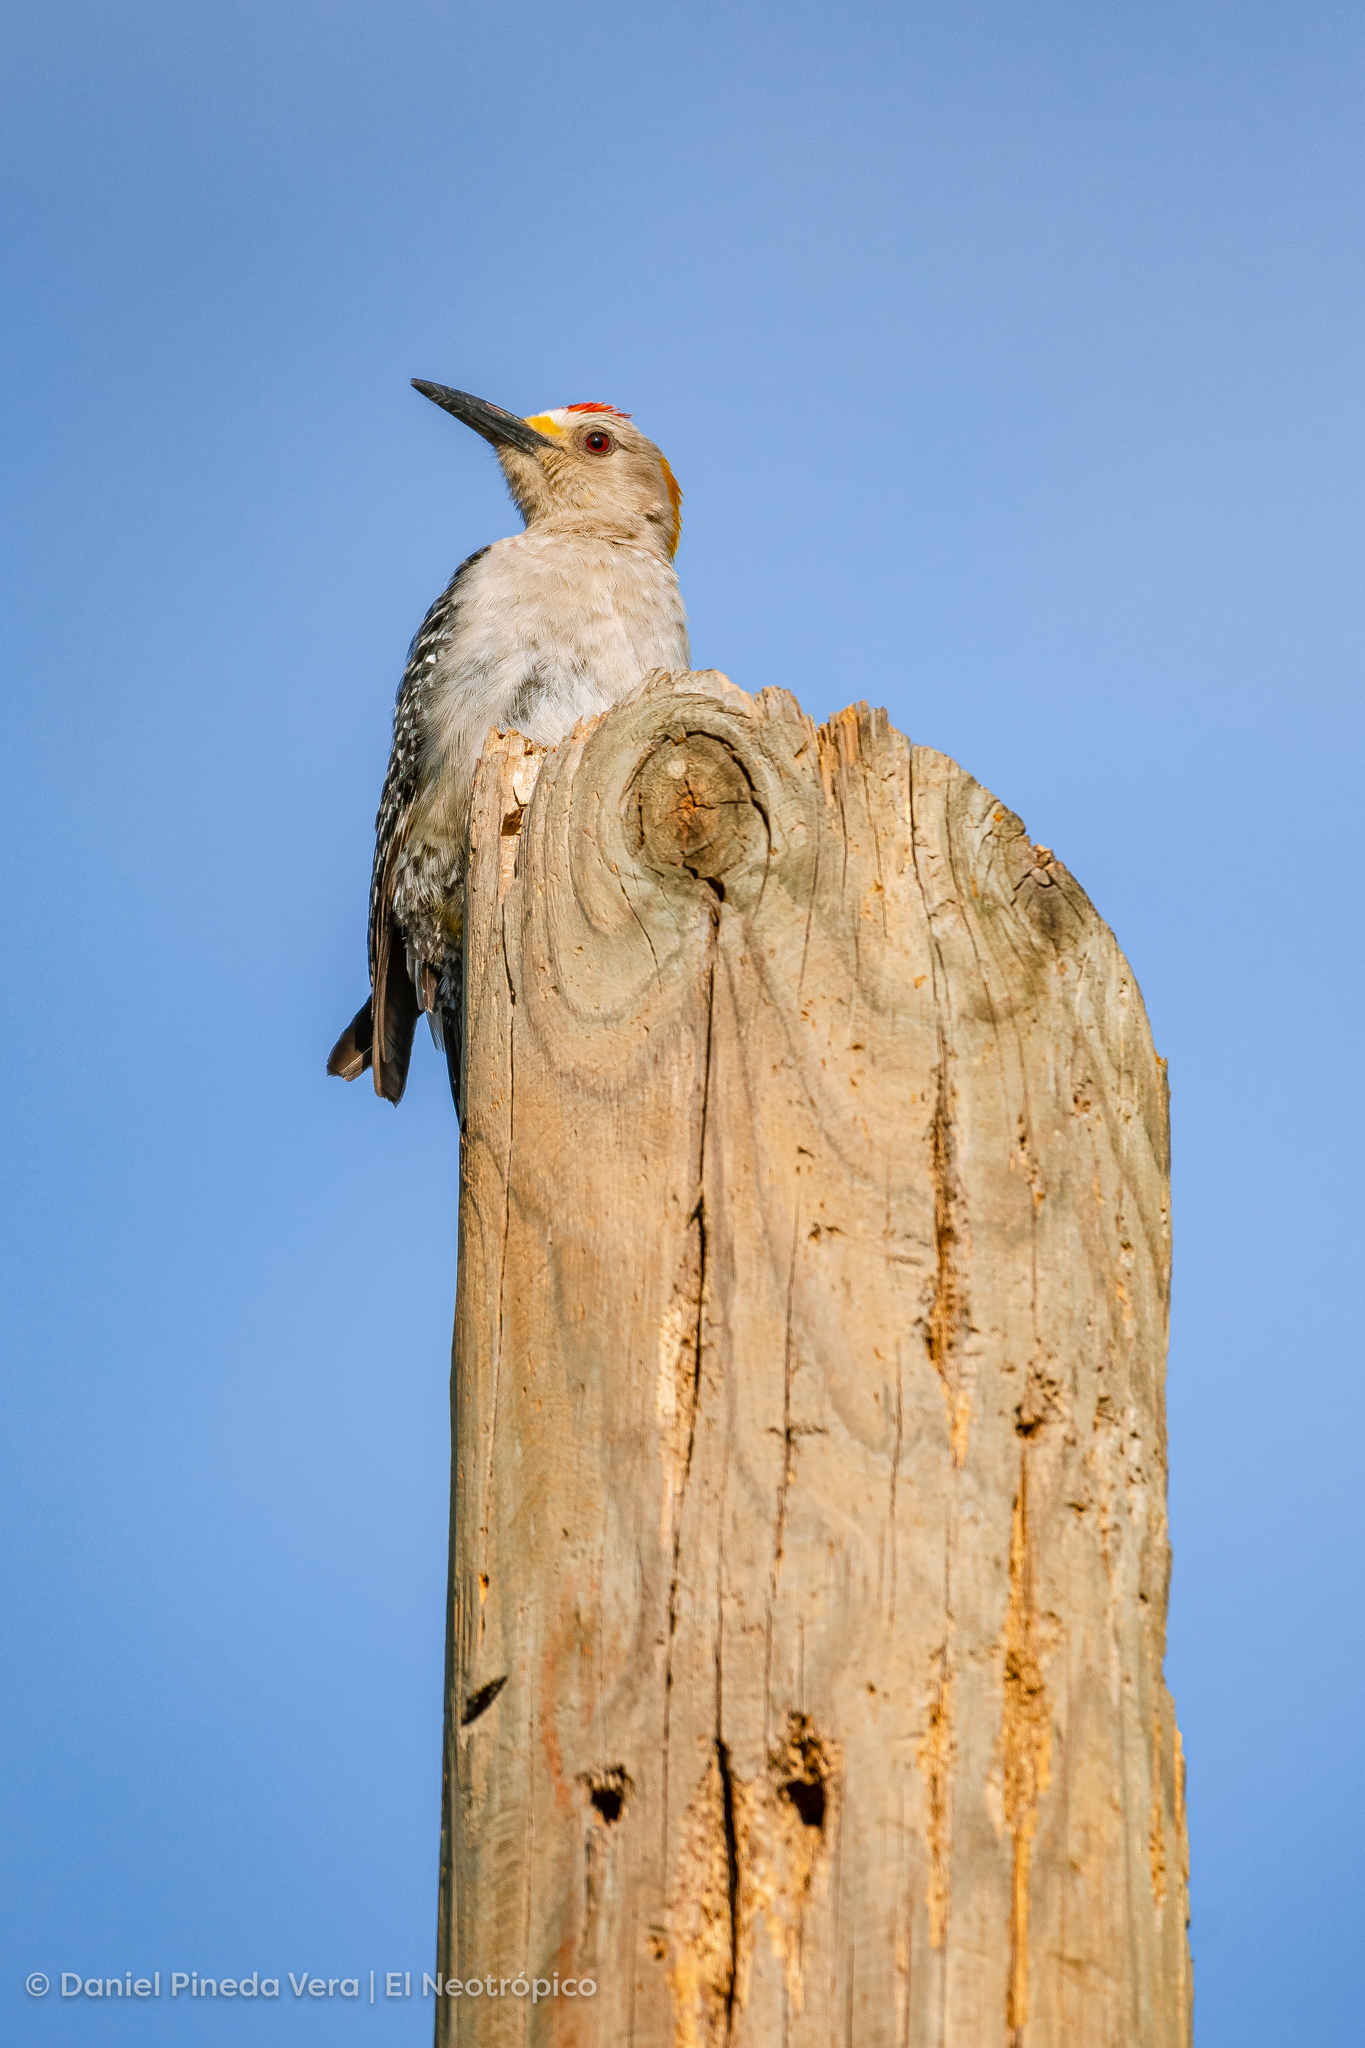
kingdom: Animalia
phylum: Chordata
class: Aves
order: Piciformes
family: Picidae
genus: Melanerpes
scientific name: Melanerpes aurifrons
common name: Golden-fronted woodpecker
